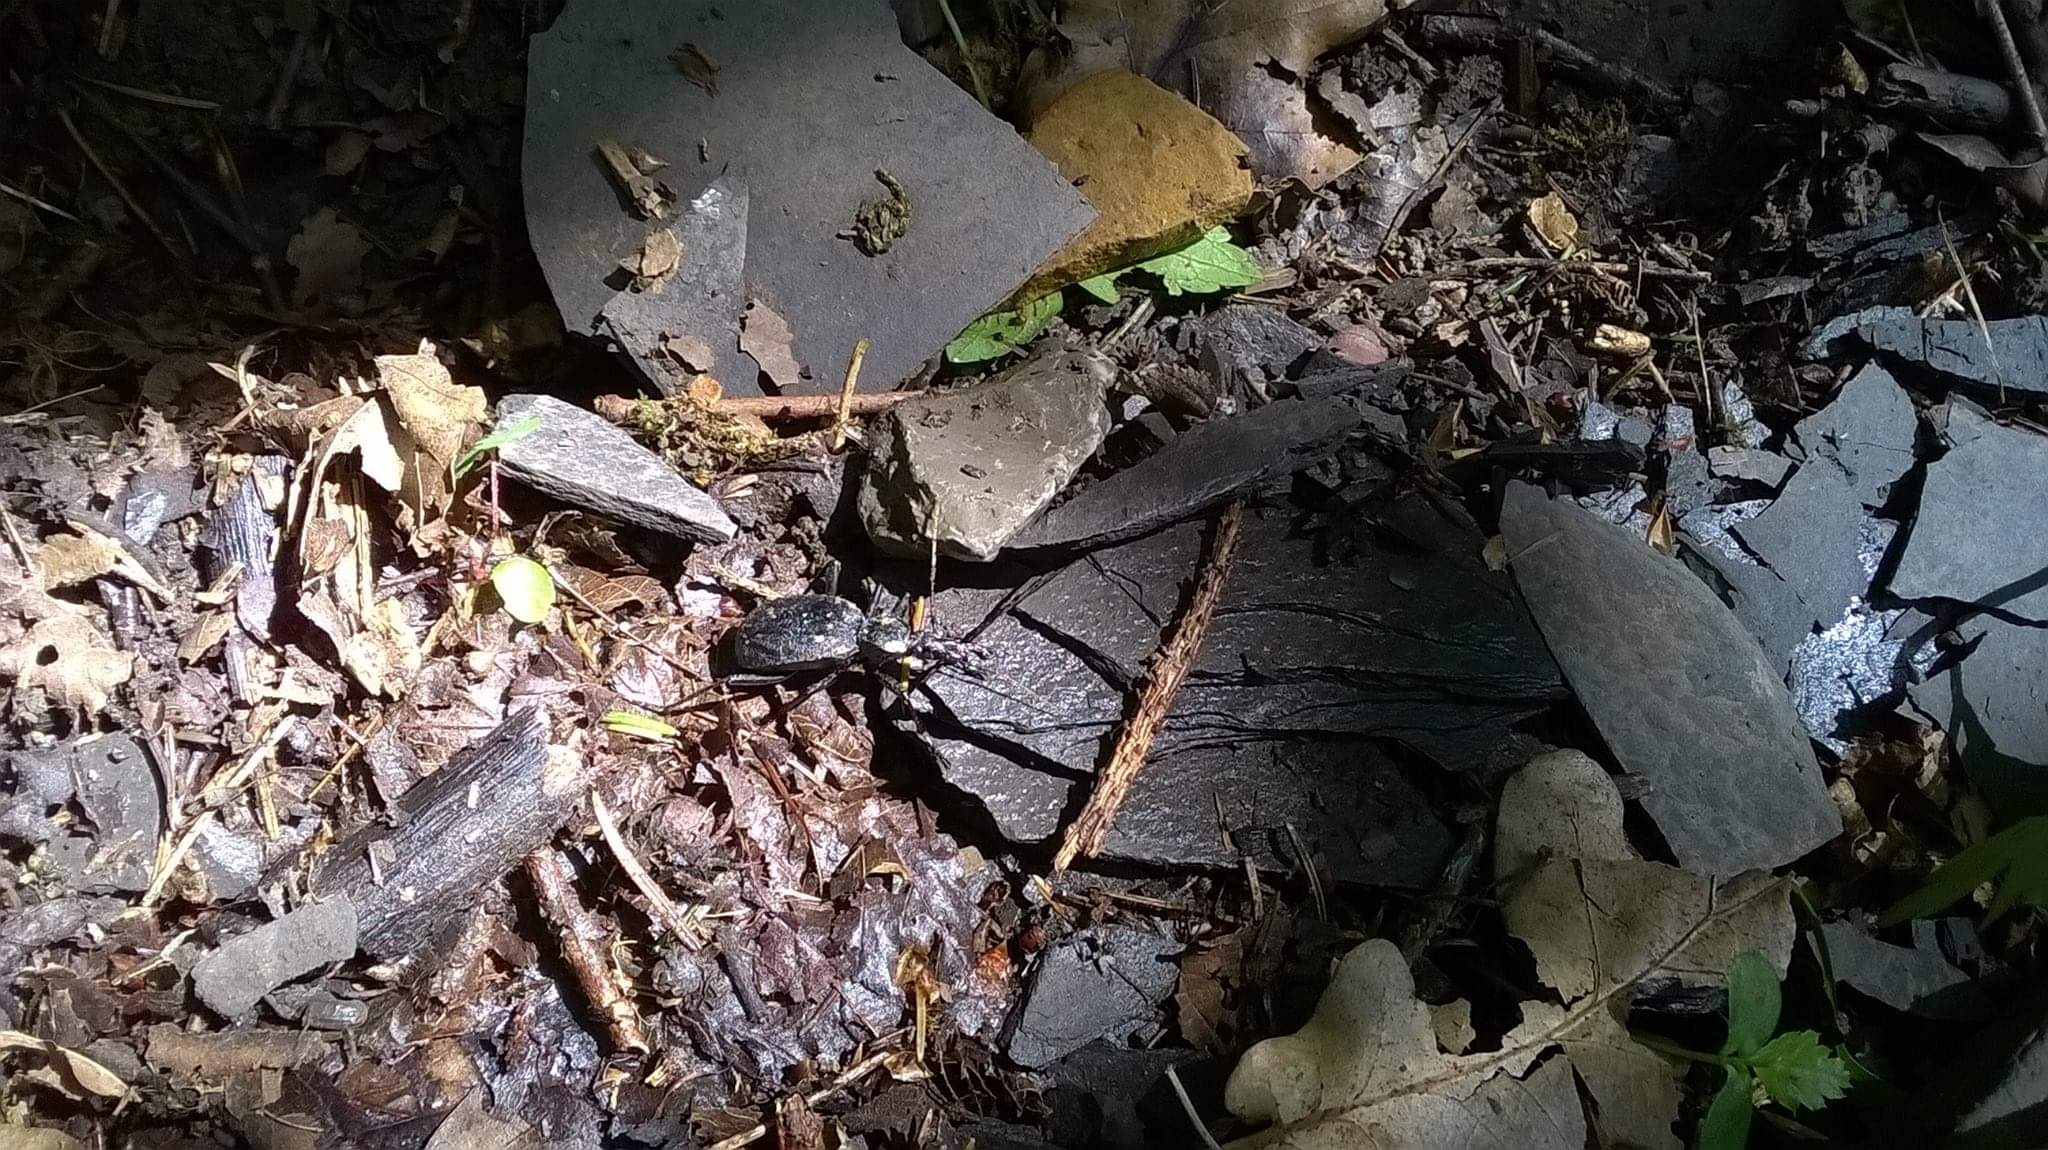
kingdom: Animalia
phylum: Arthropoda
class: Insecta
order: Coleoptera
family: Carabidae
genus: Cychrus
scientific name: Cychrus italicus
